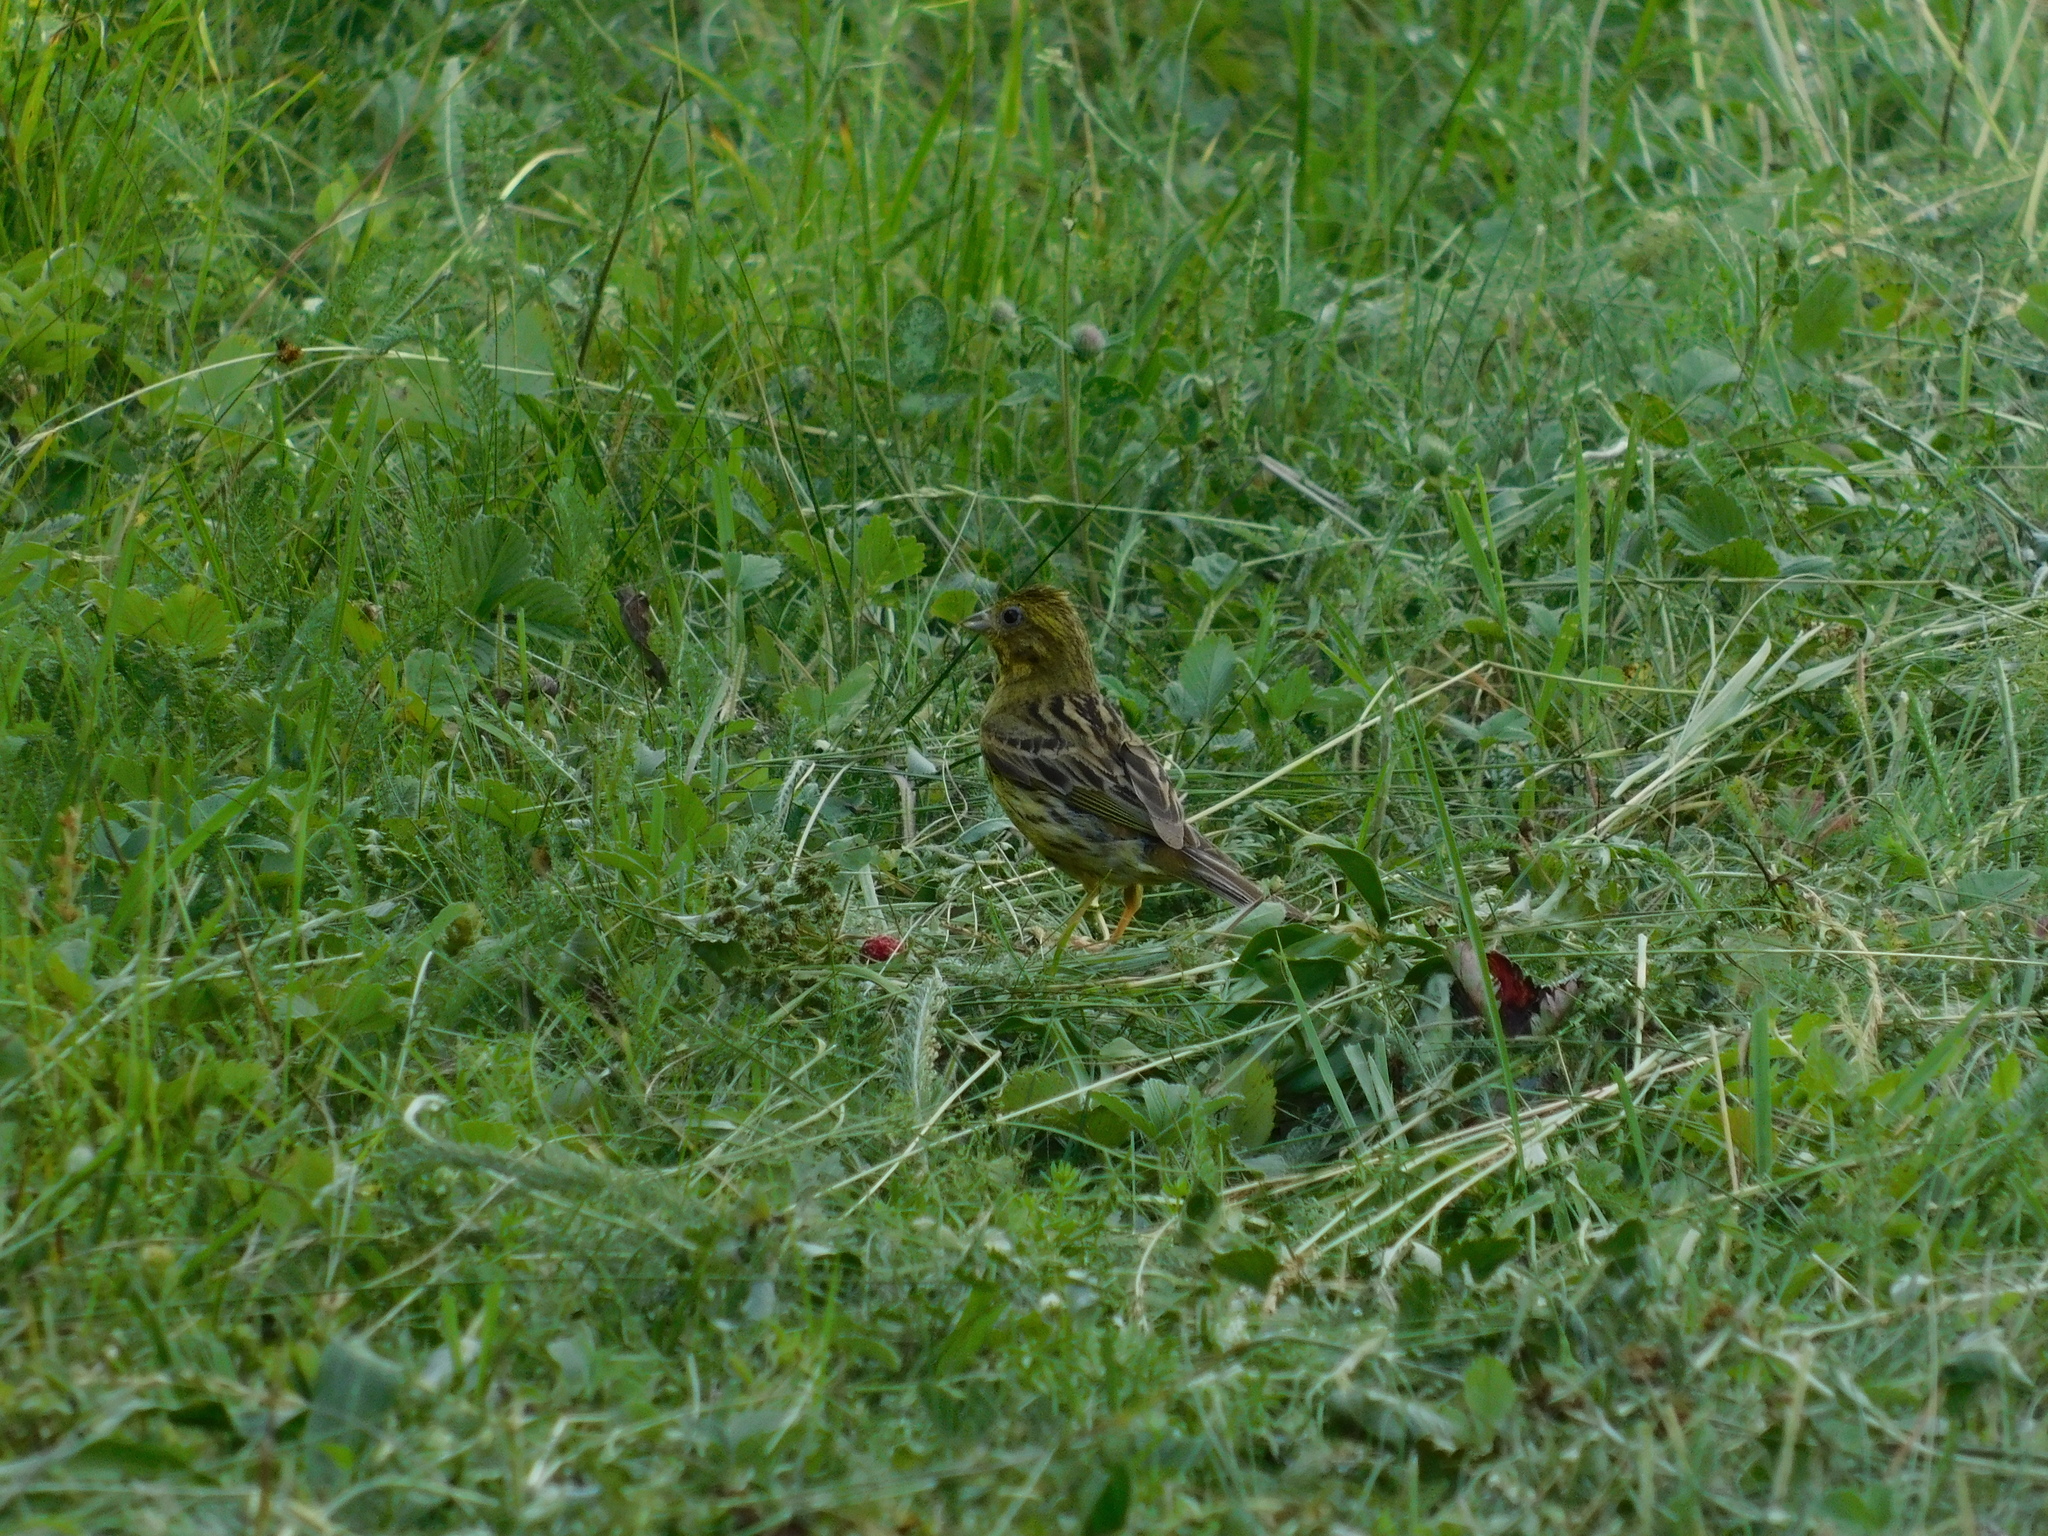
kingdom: Animalia
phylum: Chordata
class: Aves
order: Passeriformes
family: Emberizidae
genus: Emberiza
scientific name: Emberiza citrinella
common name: Yellowhammer
